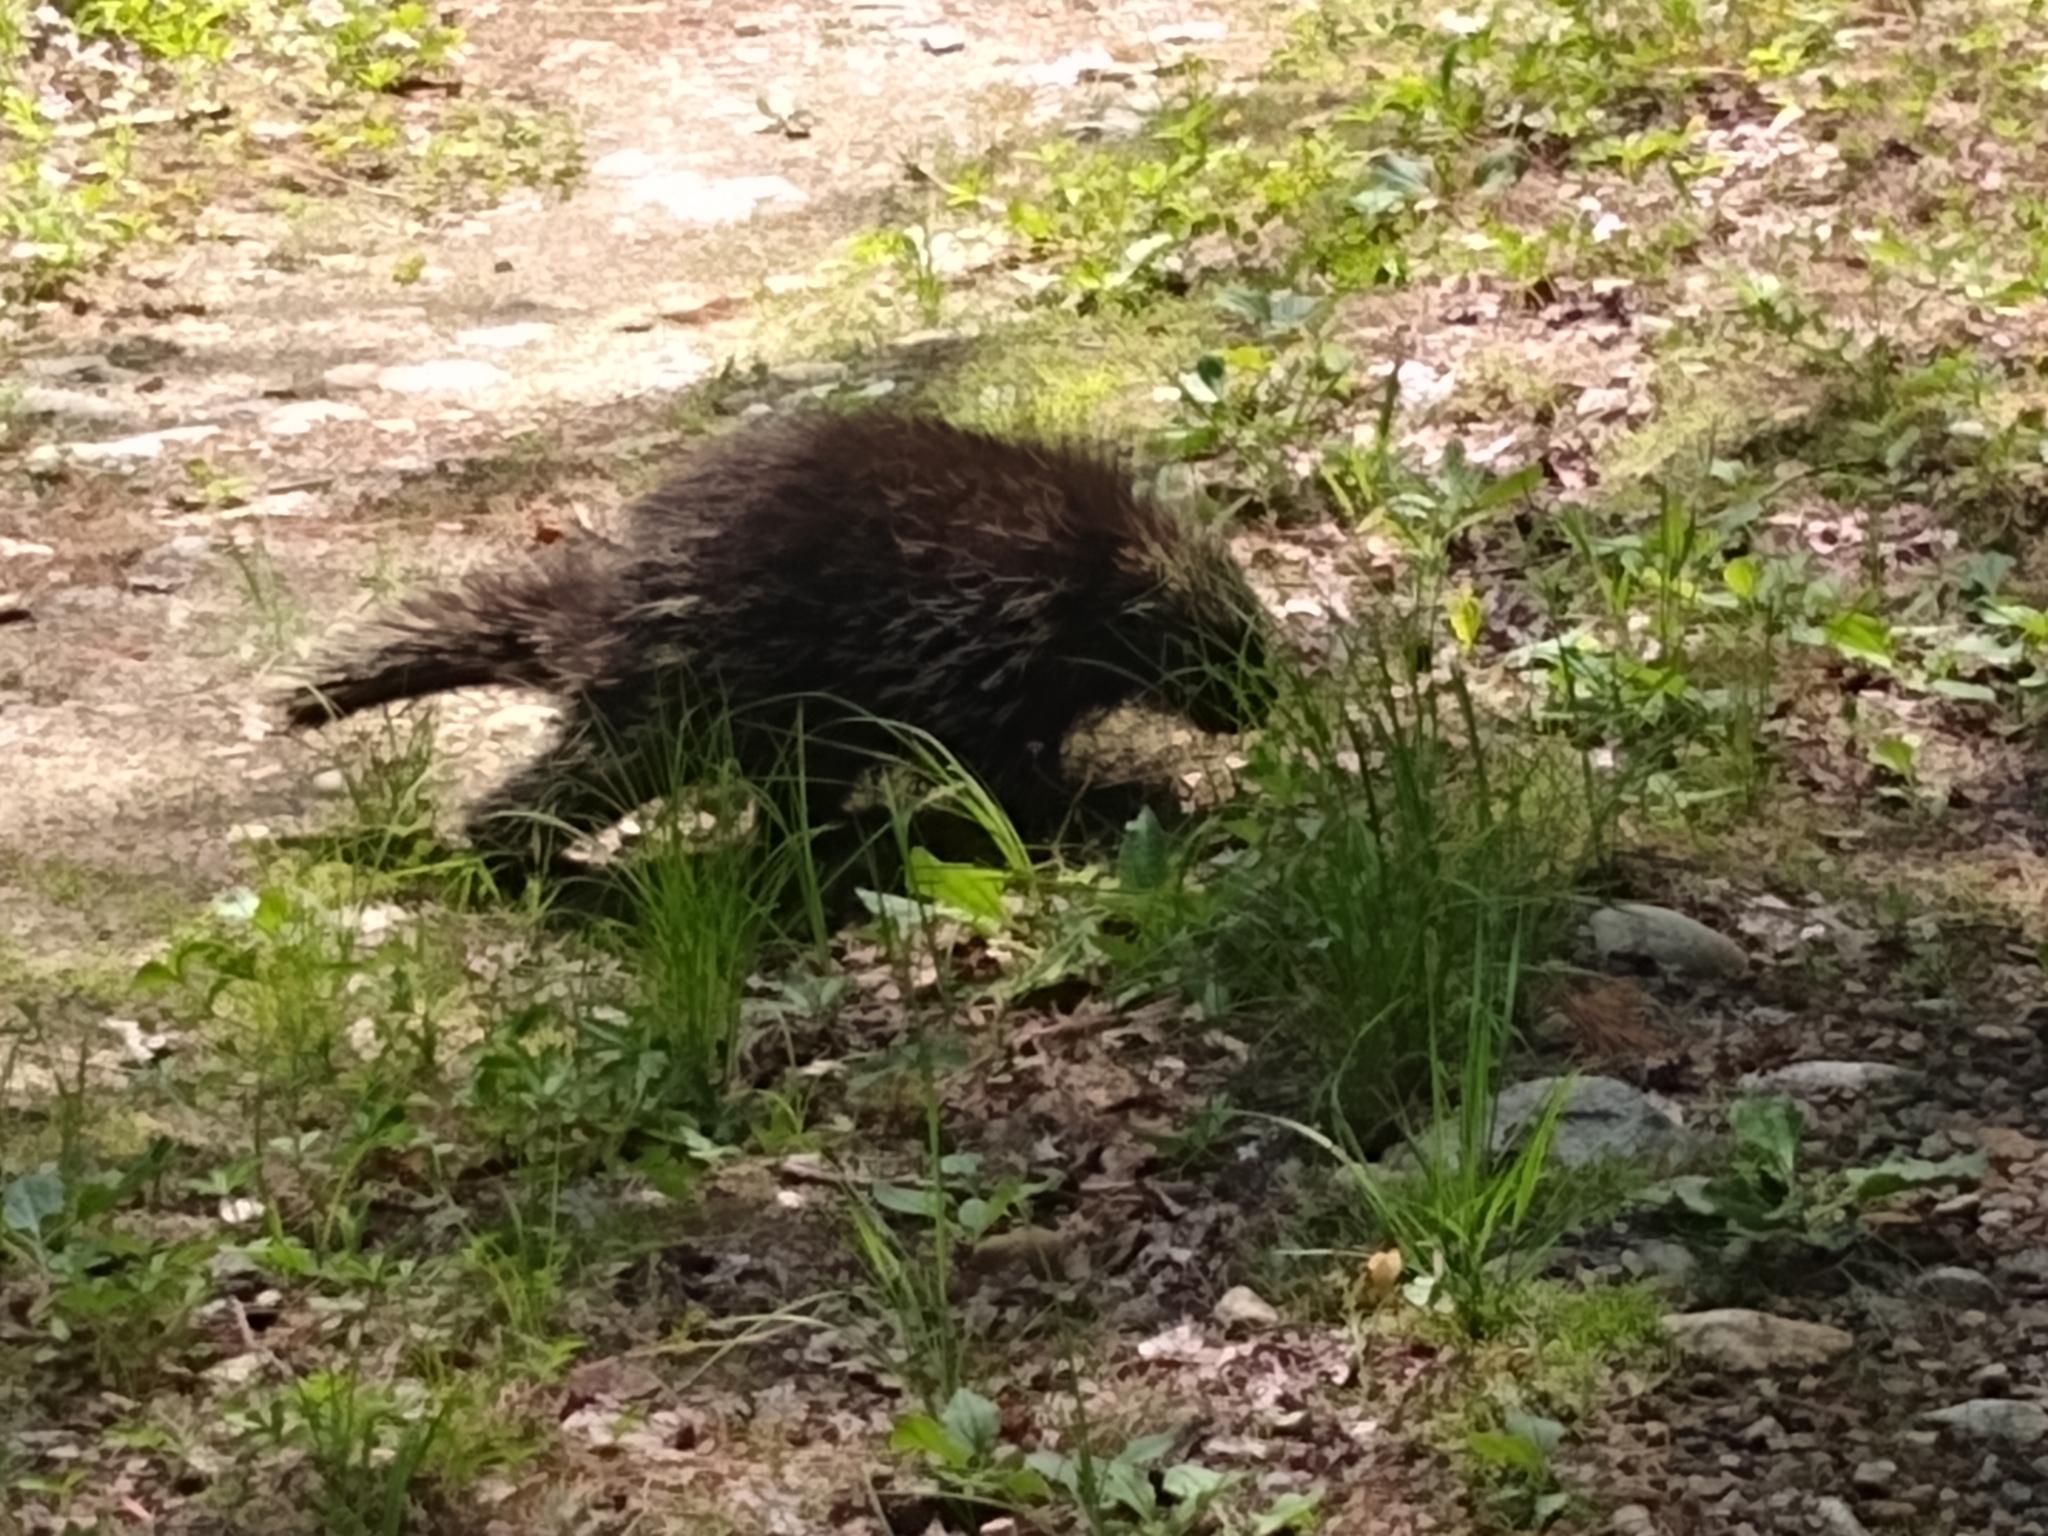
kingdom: Animalia
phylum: Chordata
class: Mammalia
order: Rodentia
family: Erethizontidae
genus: Erethizon
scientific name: Erethizon dorsatus
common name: North american porcupine
